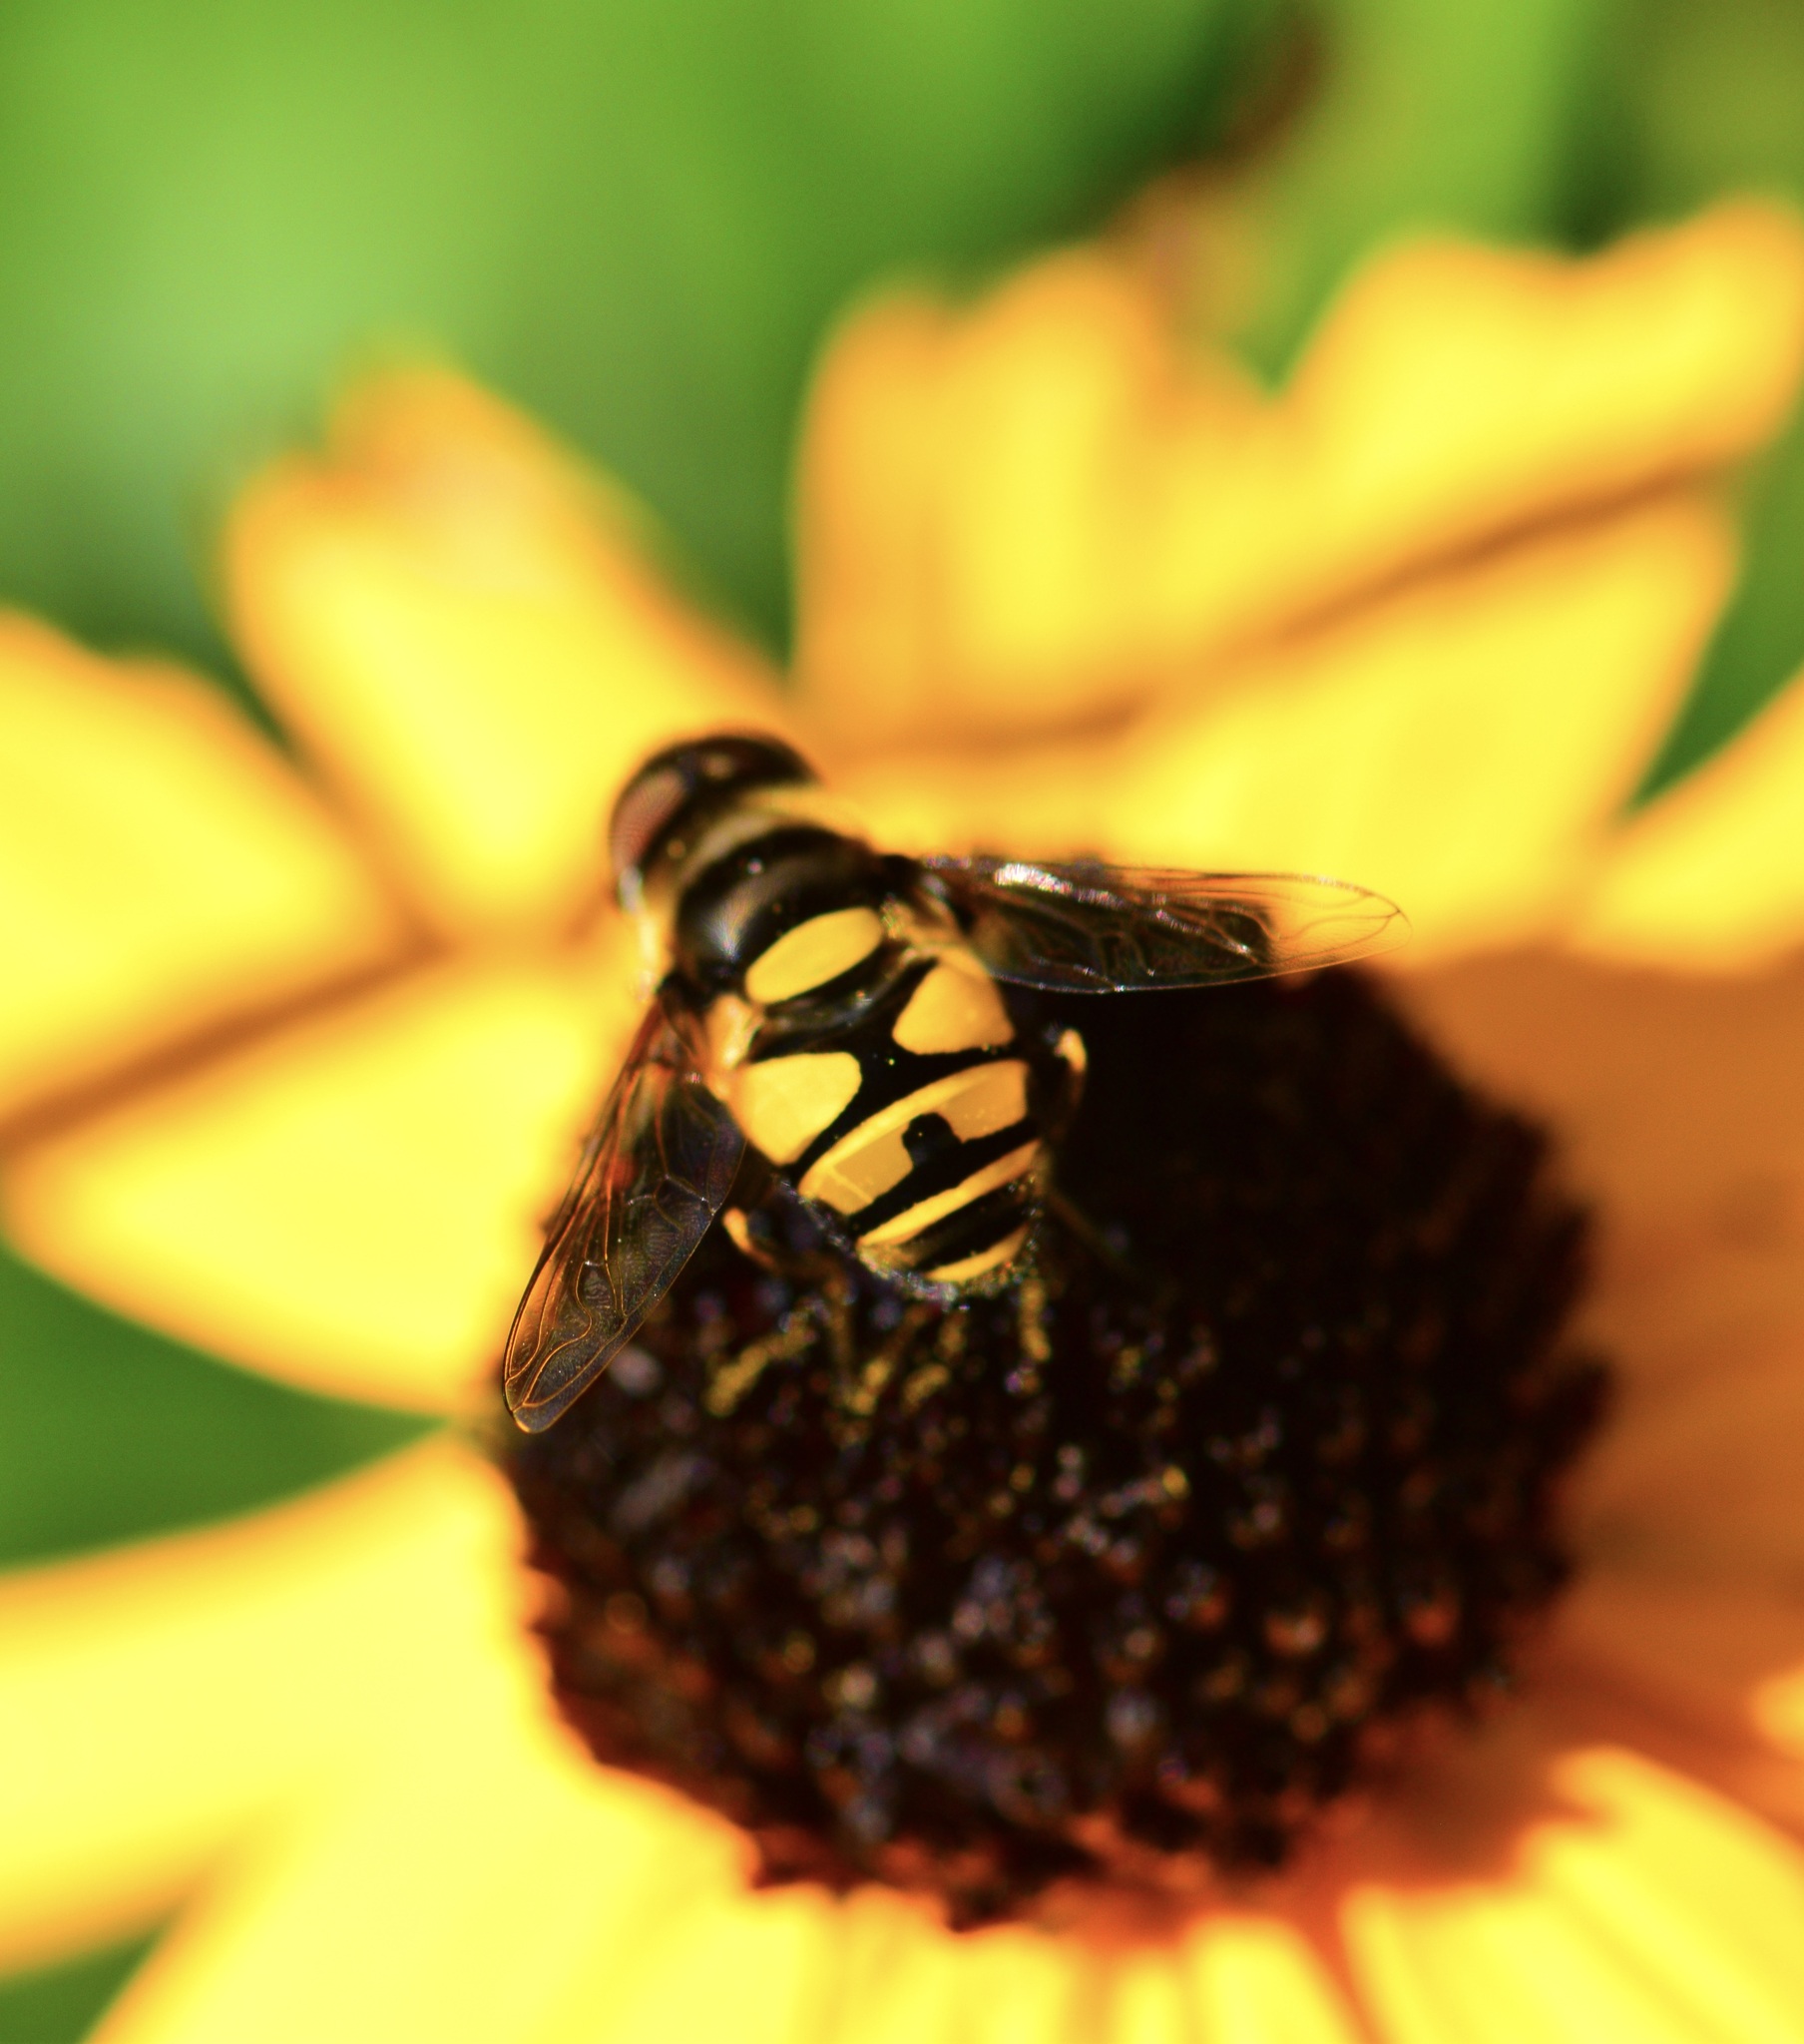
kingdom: Animalia
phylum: Arthropoda
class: Insecta
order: Diptera
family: Syrphidae
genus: Eristalis
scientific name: Eristalis transversa
